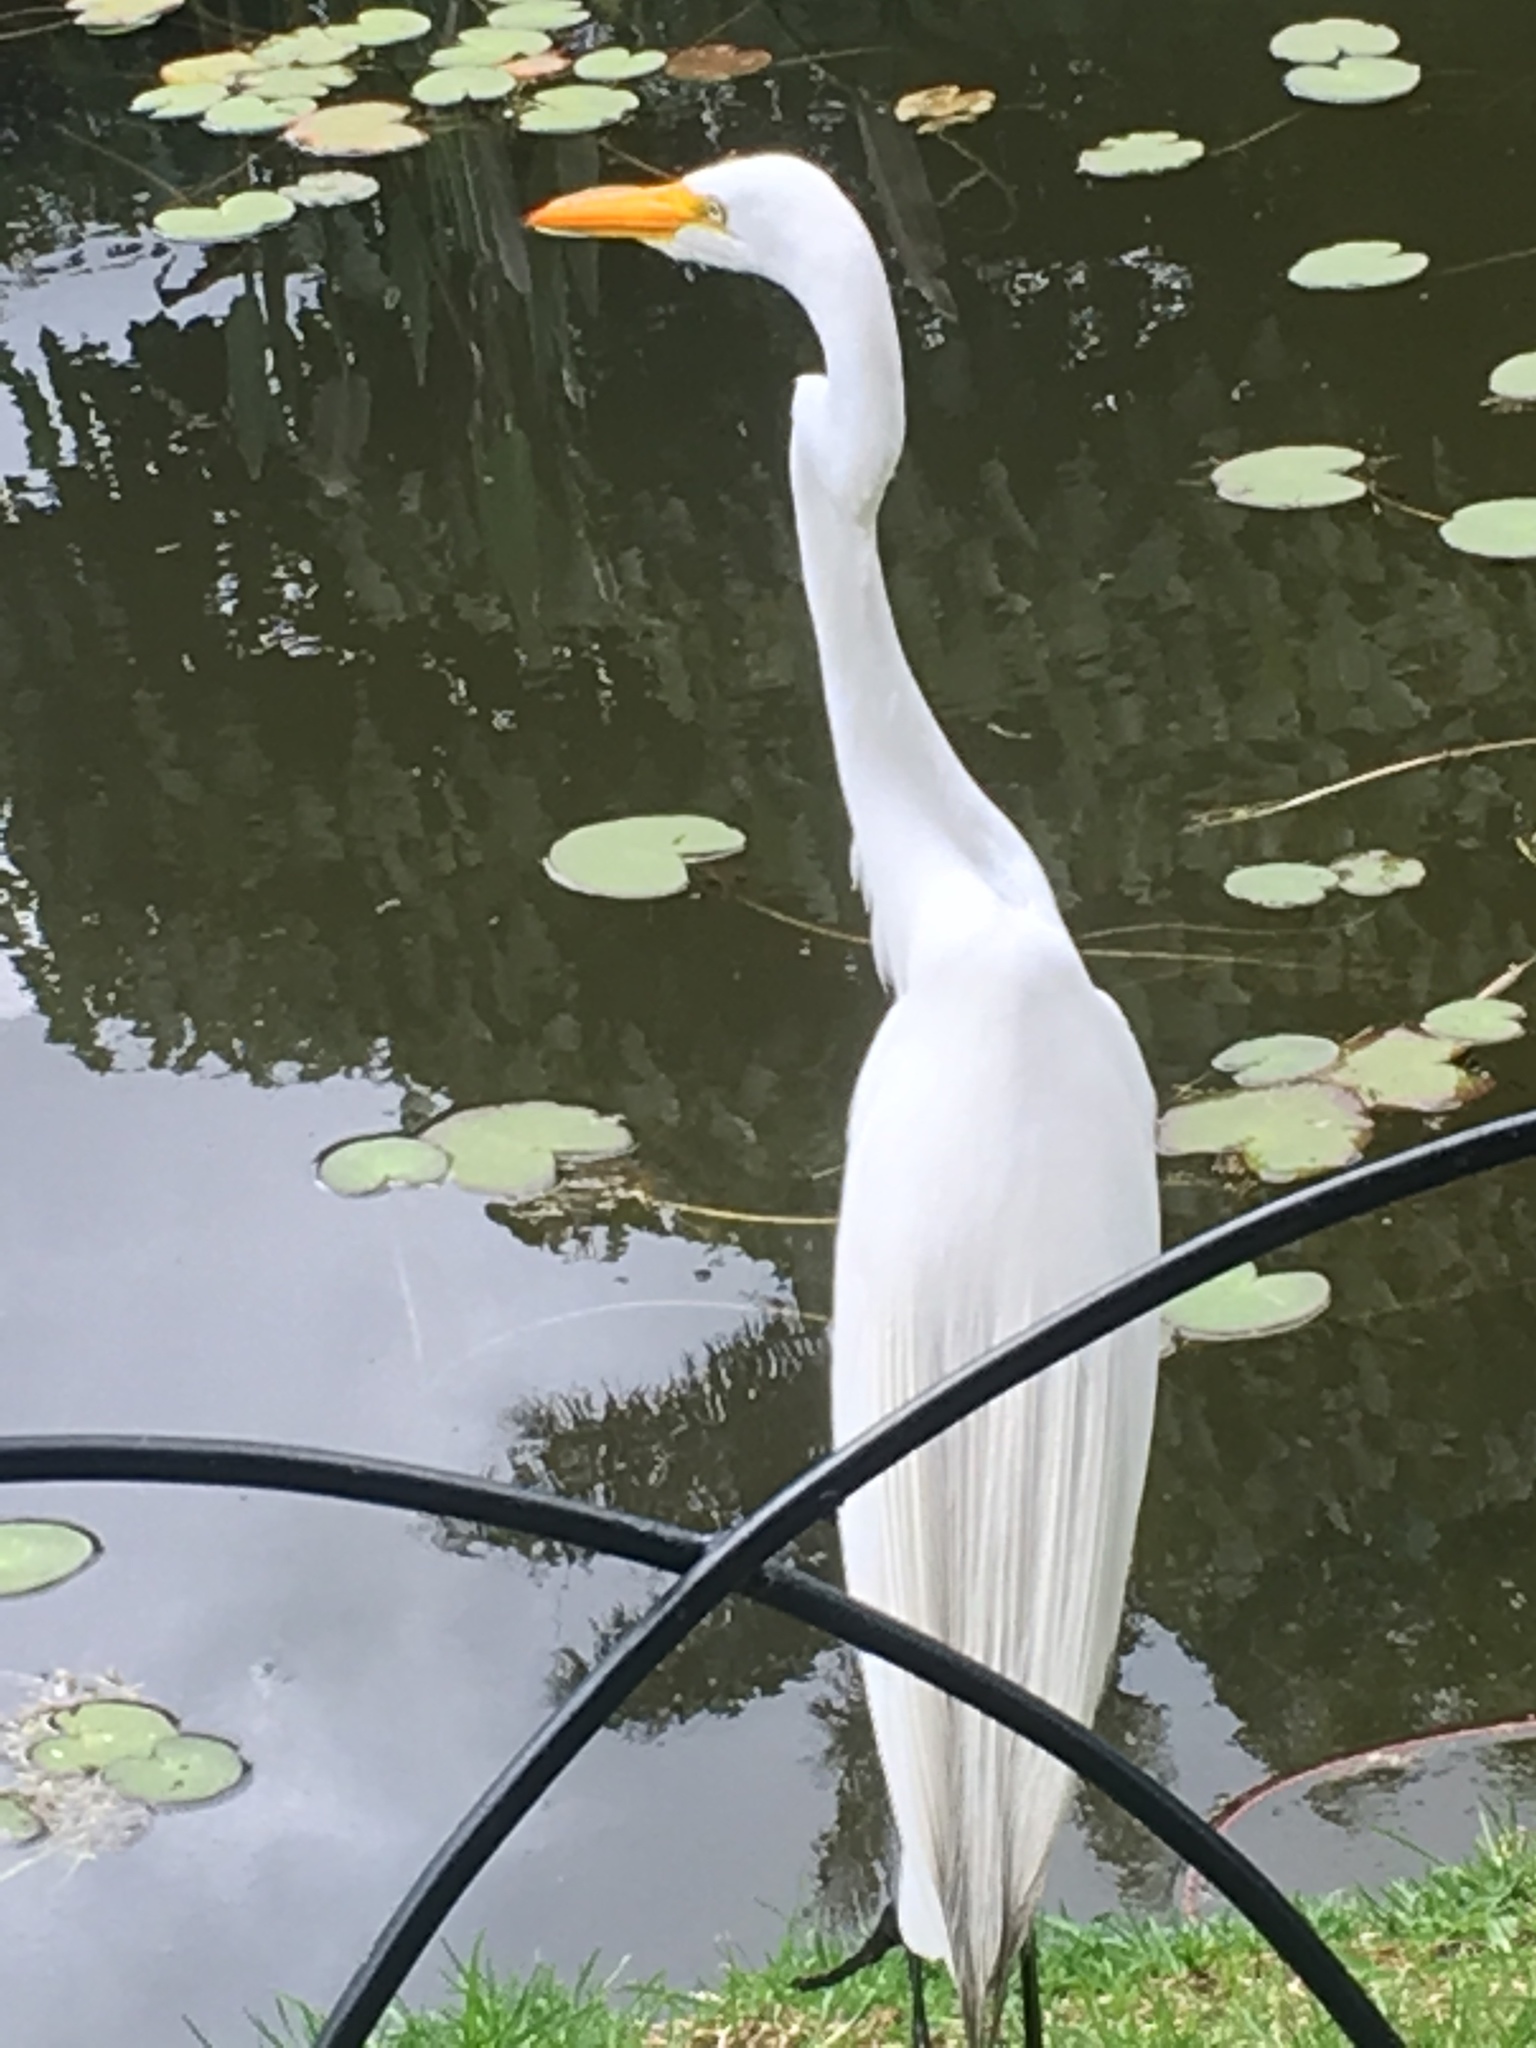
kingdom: Animalia
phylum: Chordata
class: Aves
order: Pelecaniformes
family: Ardeidae
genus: Ardea
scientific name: Ardea alba
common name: Great egret
